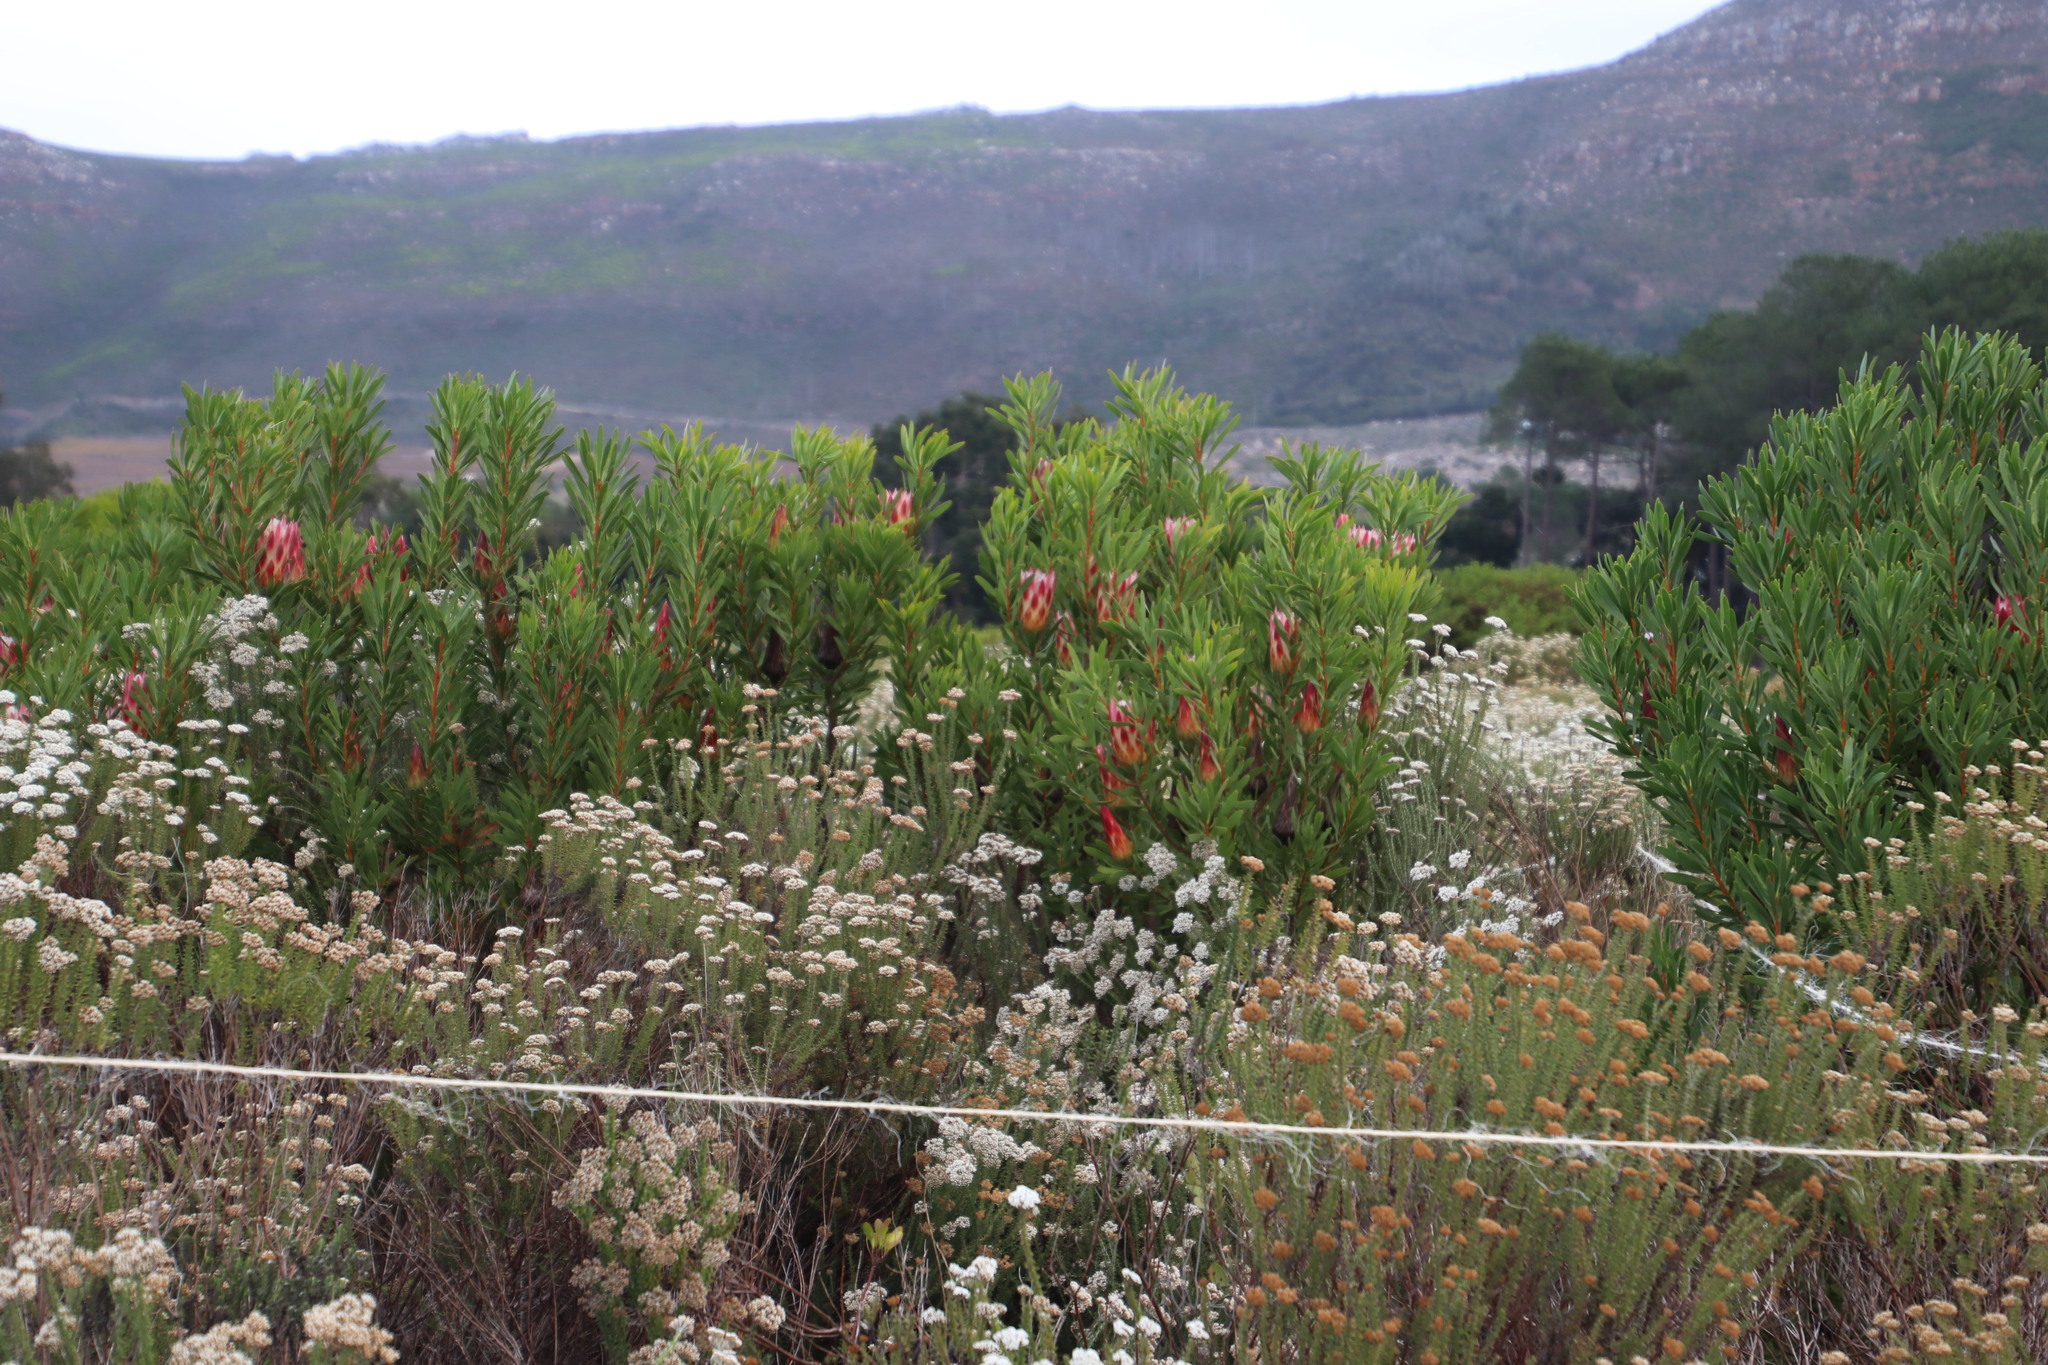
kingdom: Plantae
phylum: Tracheophyta
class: Magnoliopsida
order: Proteales
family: Proteaceae
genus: Protea
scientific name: Protea repens
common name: Sugarbush
